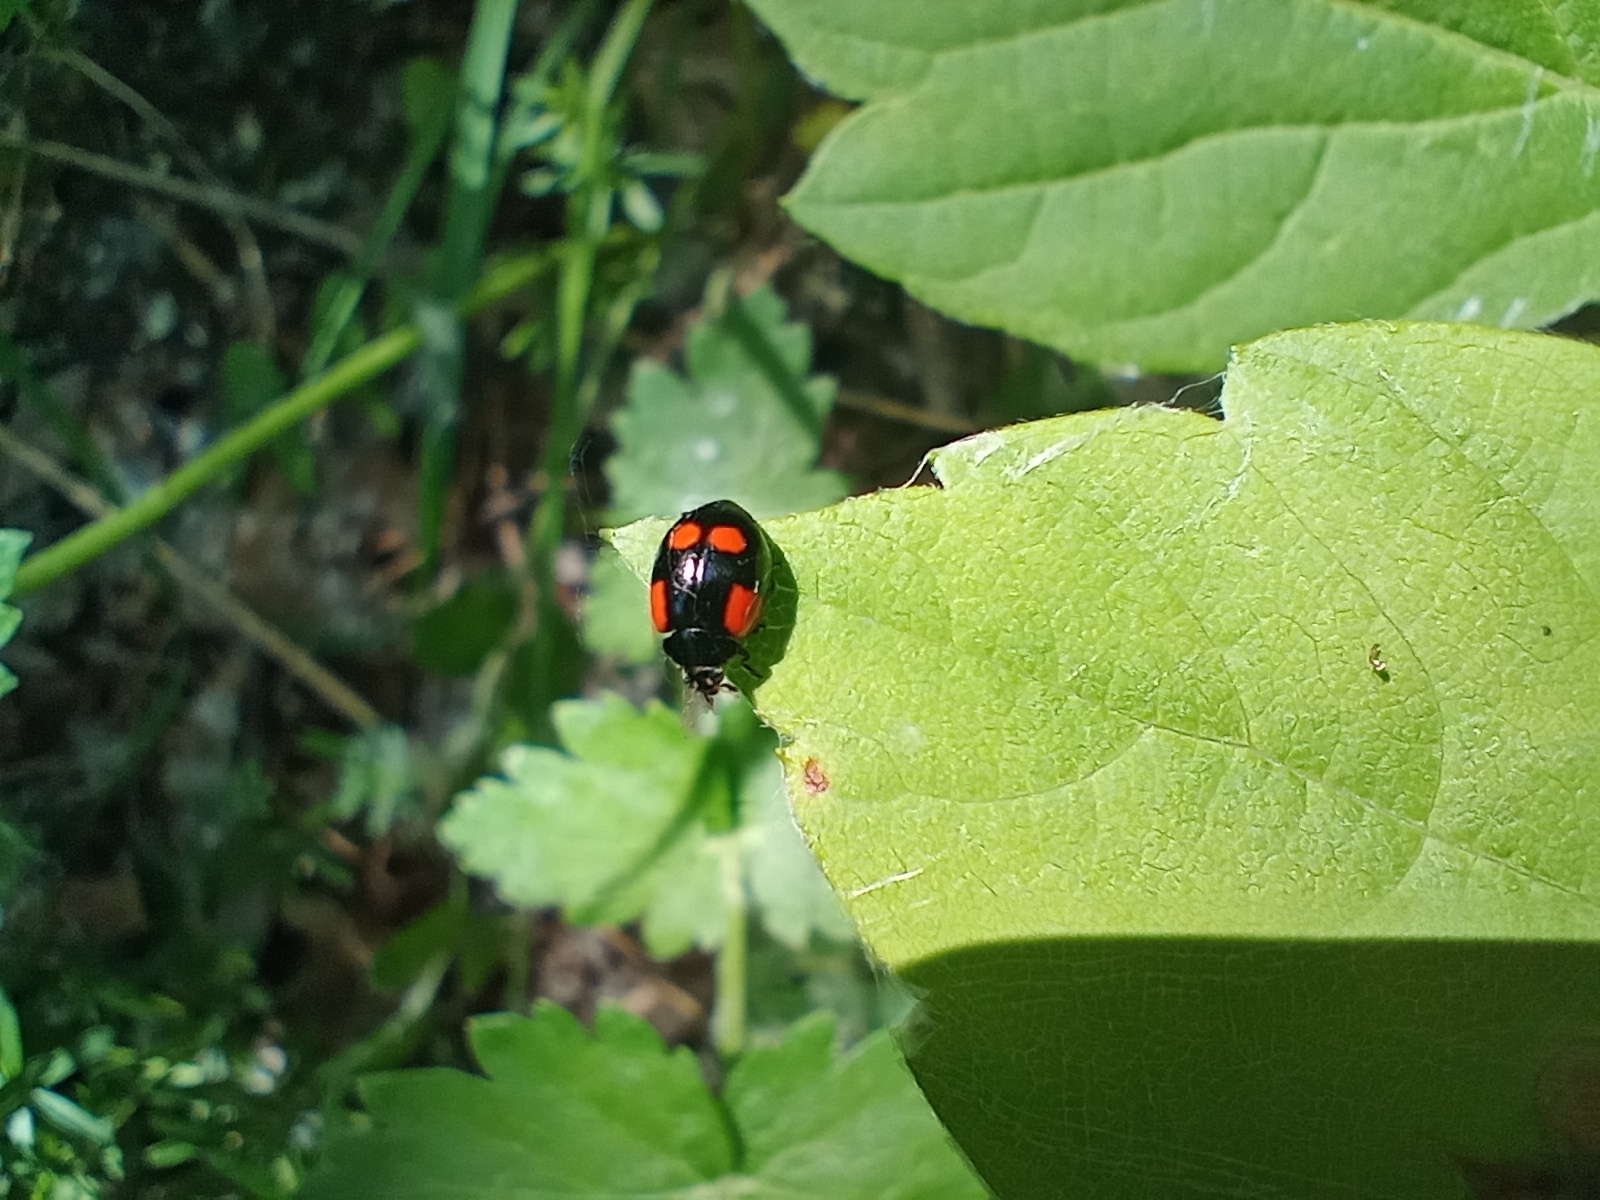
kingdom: Animalia
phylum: Arthropoda
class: Insecta
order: Coleoptera
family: Coccinellidae
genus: Adalia
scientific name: Adalia bipunctata
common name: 2-spot ladybird
